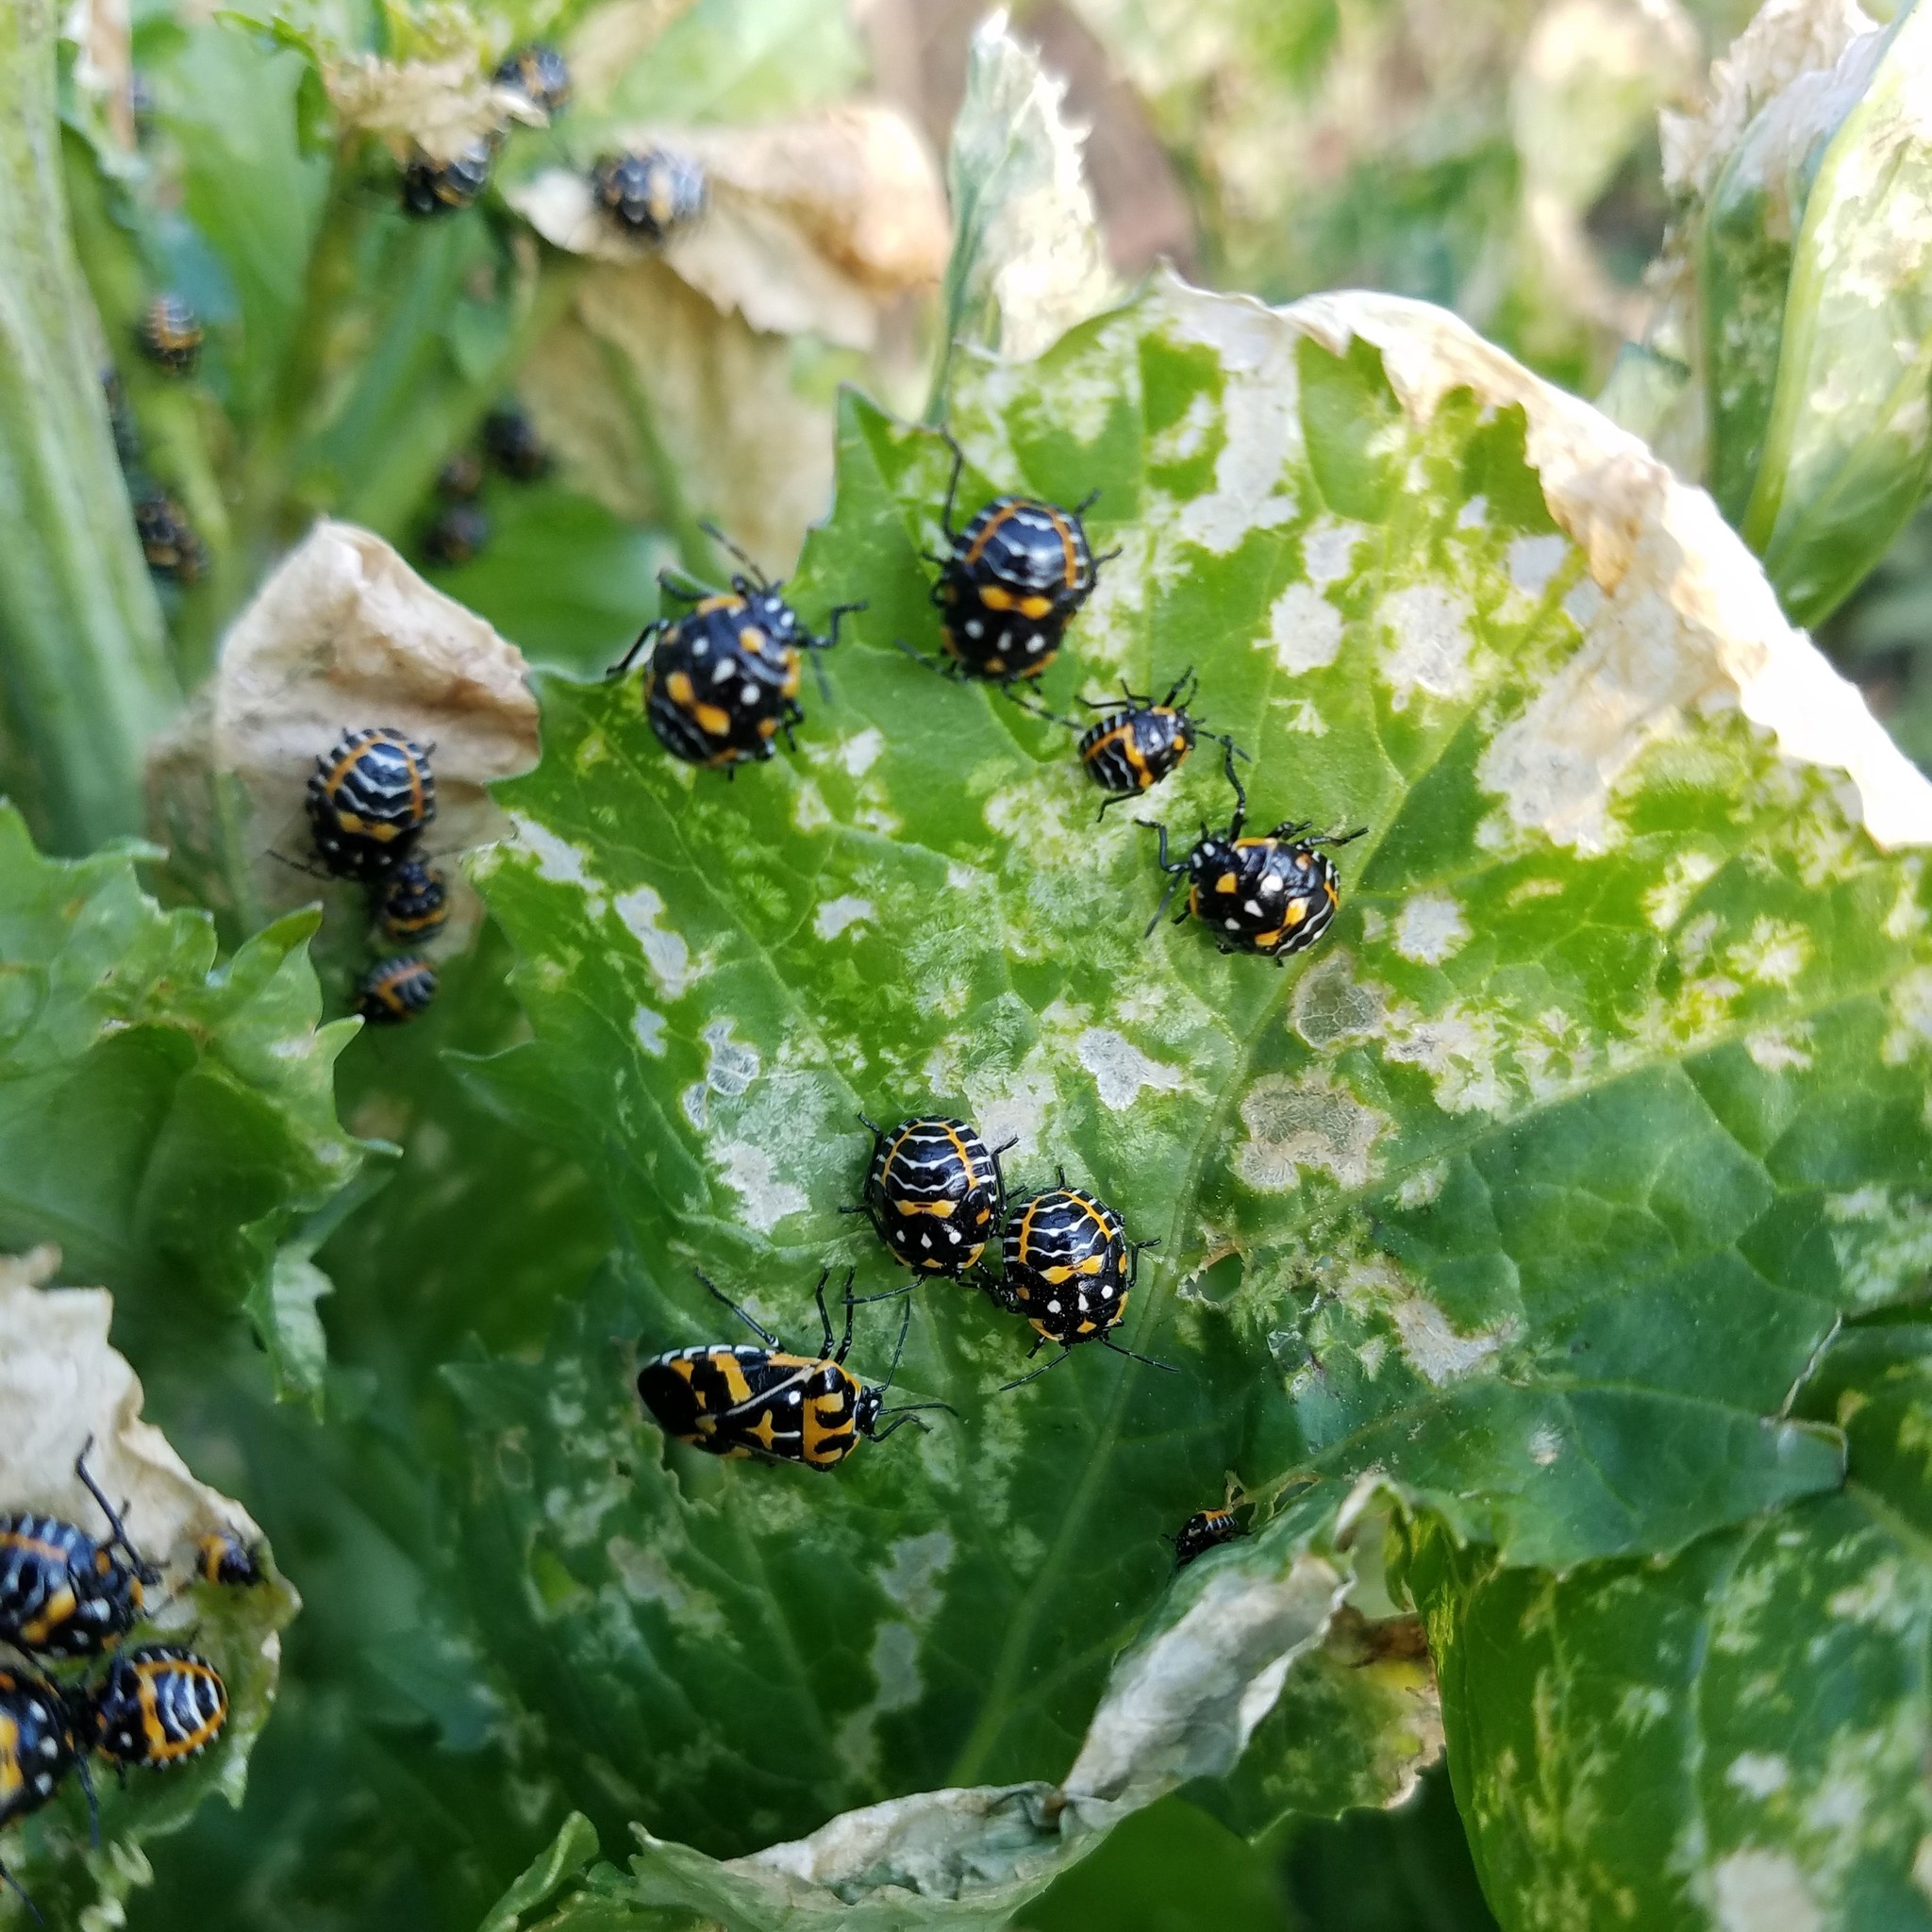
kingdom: Animalia
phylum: Arthropoda
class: Insecta
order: Hemiptera
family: Pentatomidae
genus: Murgantia
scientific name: Murgantia histrionica
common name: Harlequin bug
